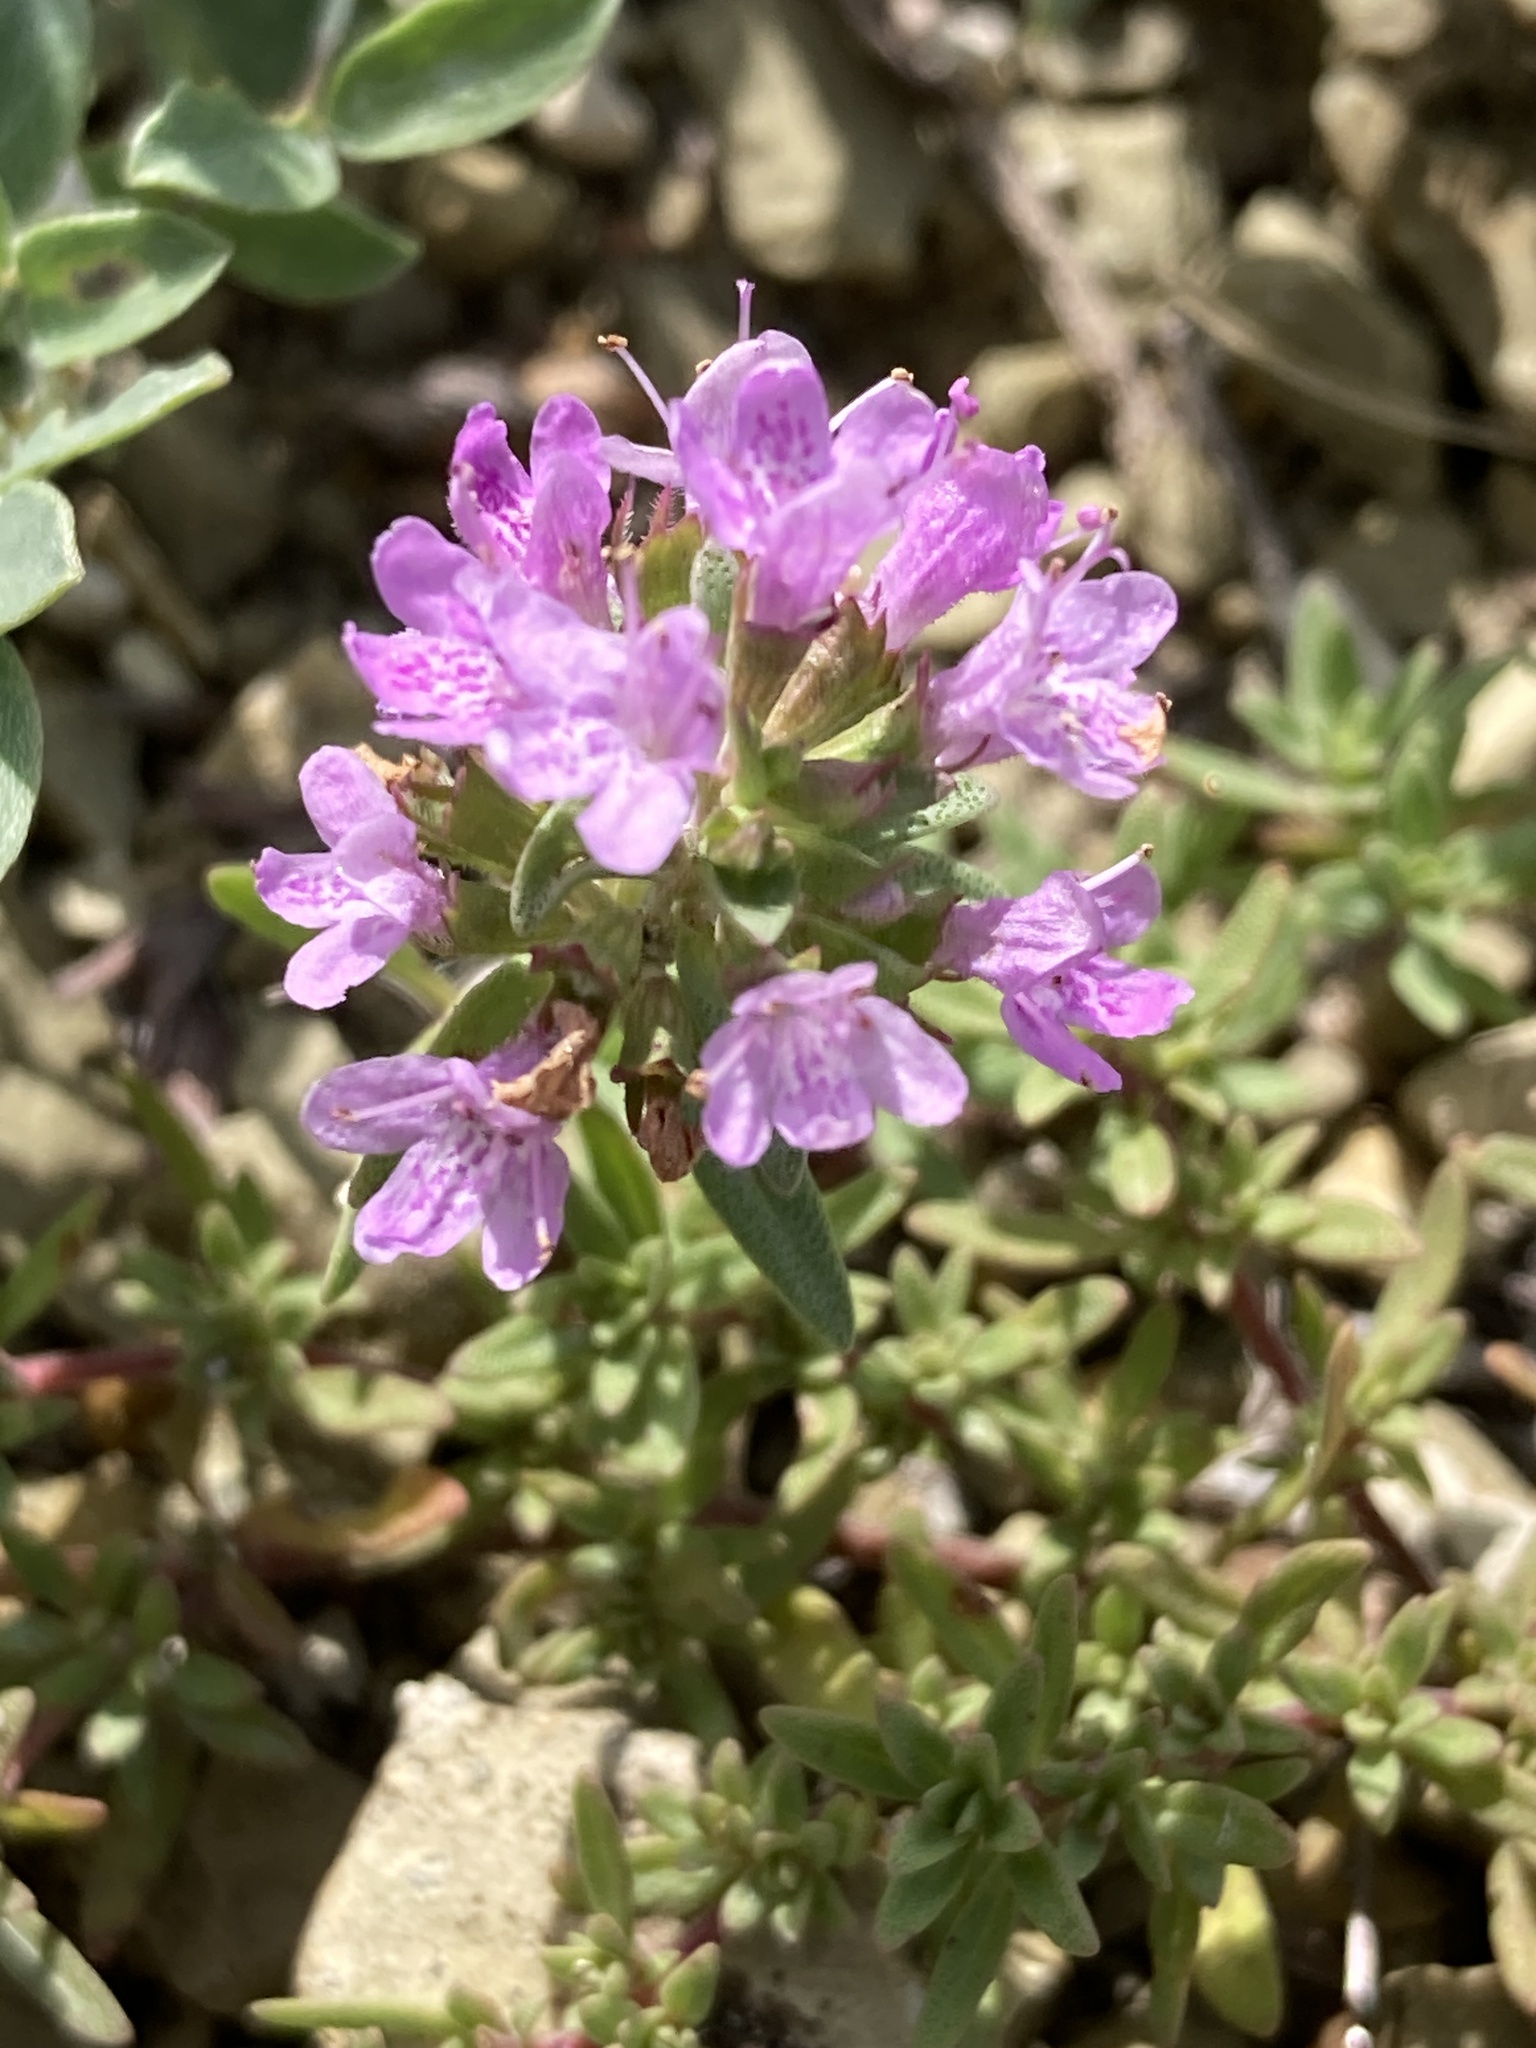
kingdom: Plantae
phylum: Tracheophyta
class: Magnoliopsida
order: Lamiales
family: Lamiaceae
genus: Thymus
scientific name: Thymus calcareus
